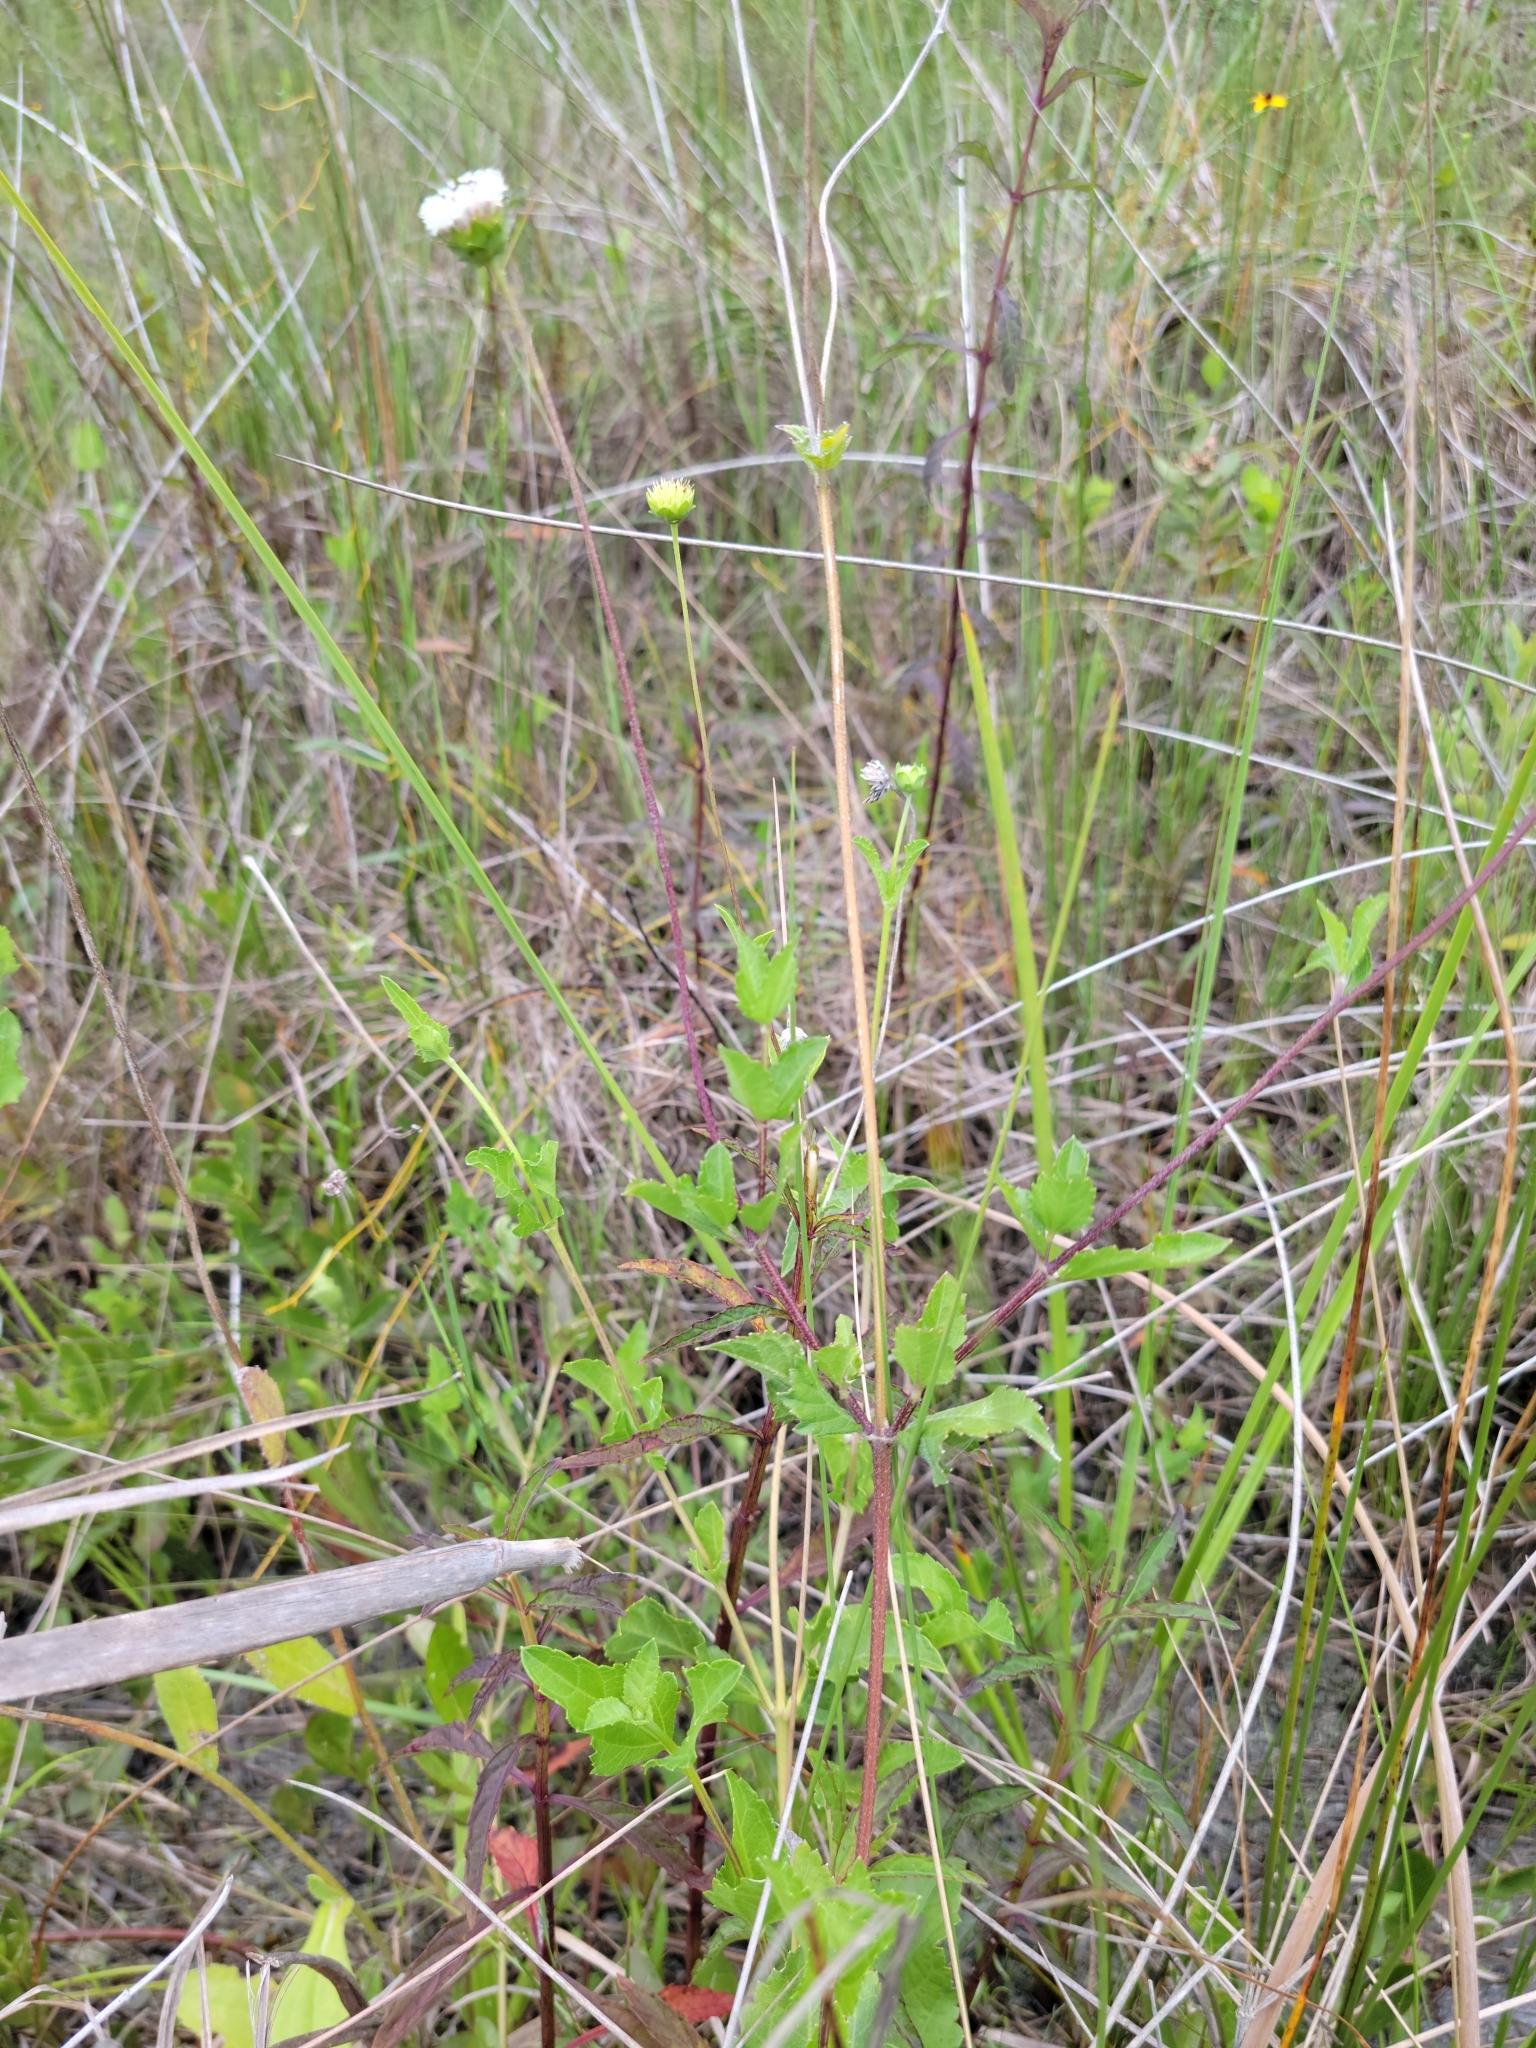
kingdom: Plantae
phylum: Tracheophyta
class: Magnoliopsida
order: Asterales
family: Asteraceae
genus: Melanthera
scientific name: Melanthera nivea
